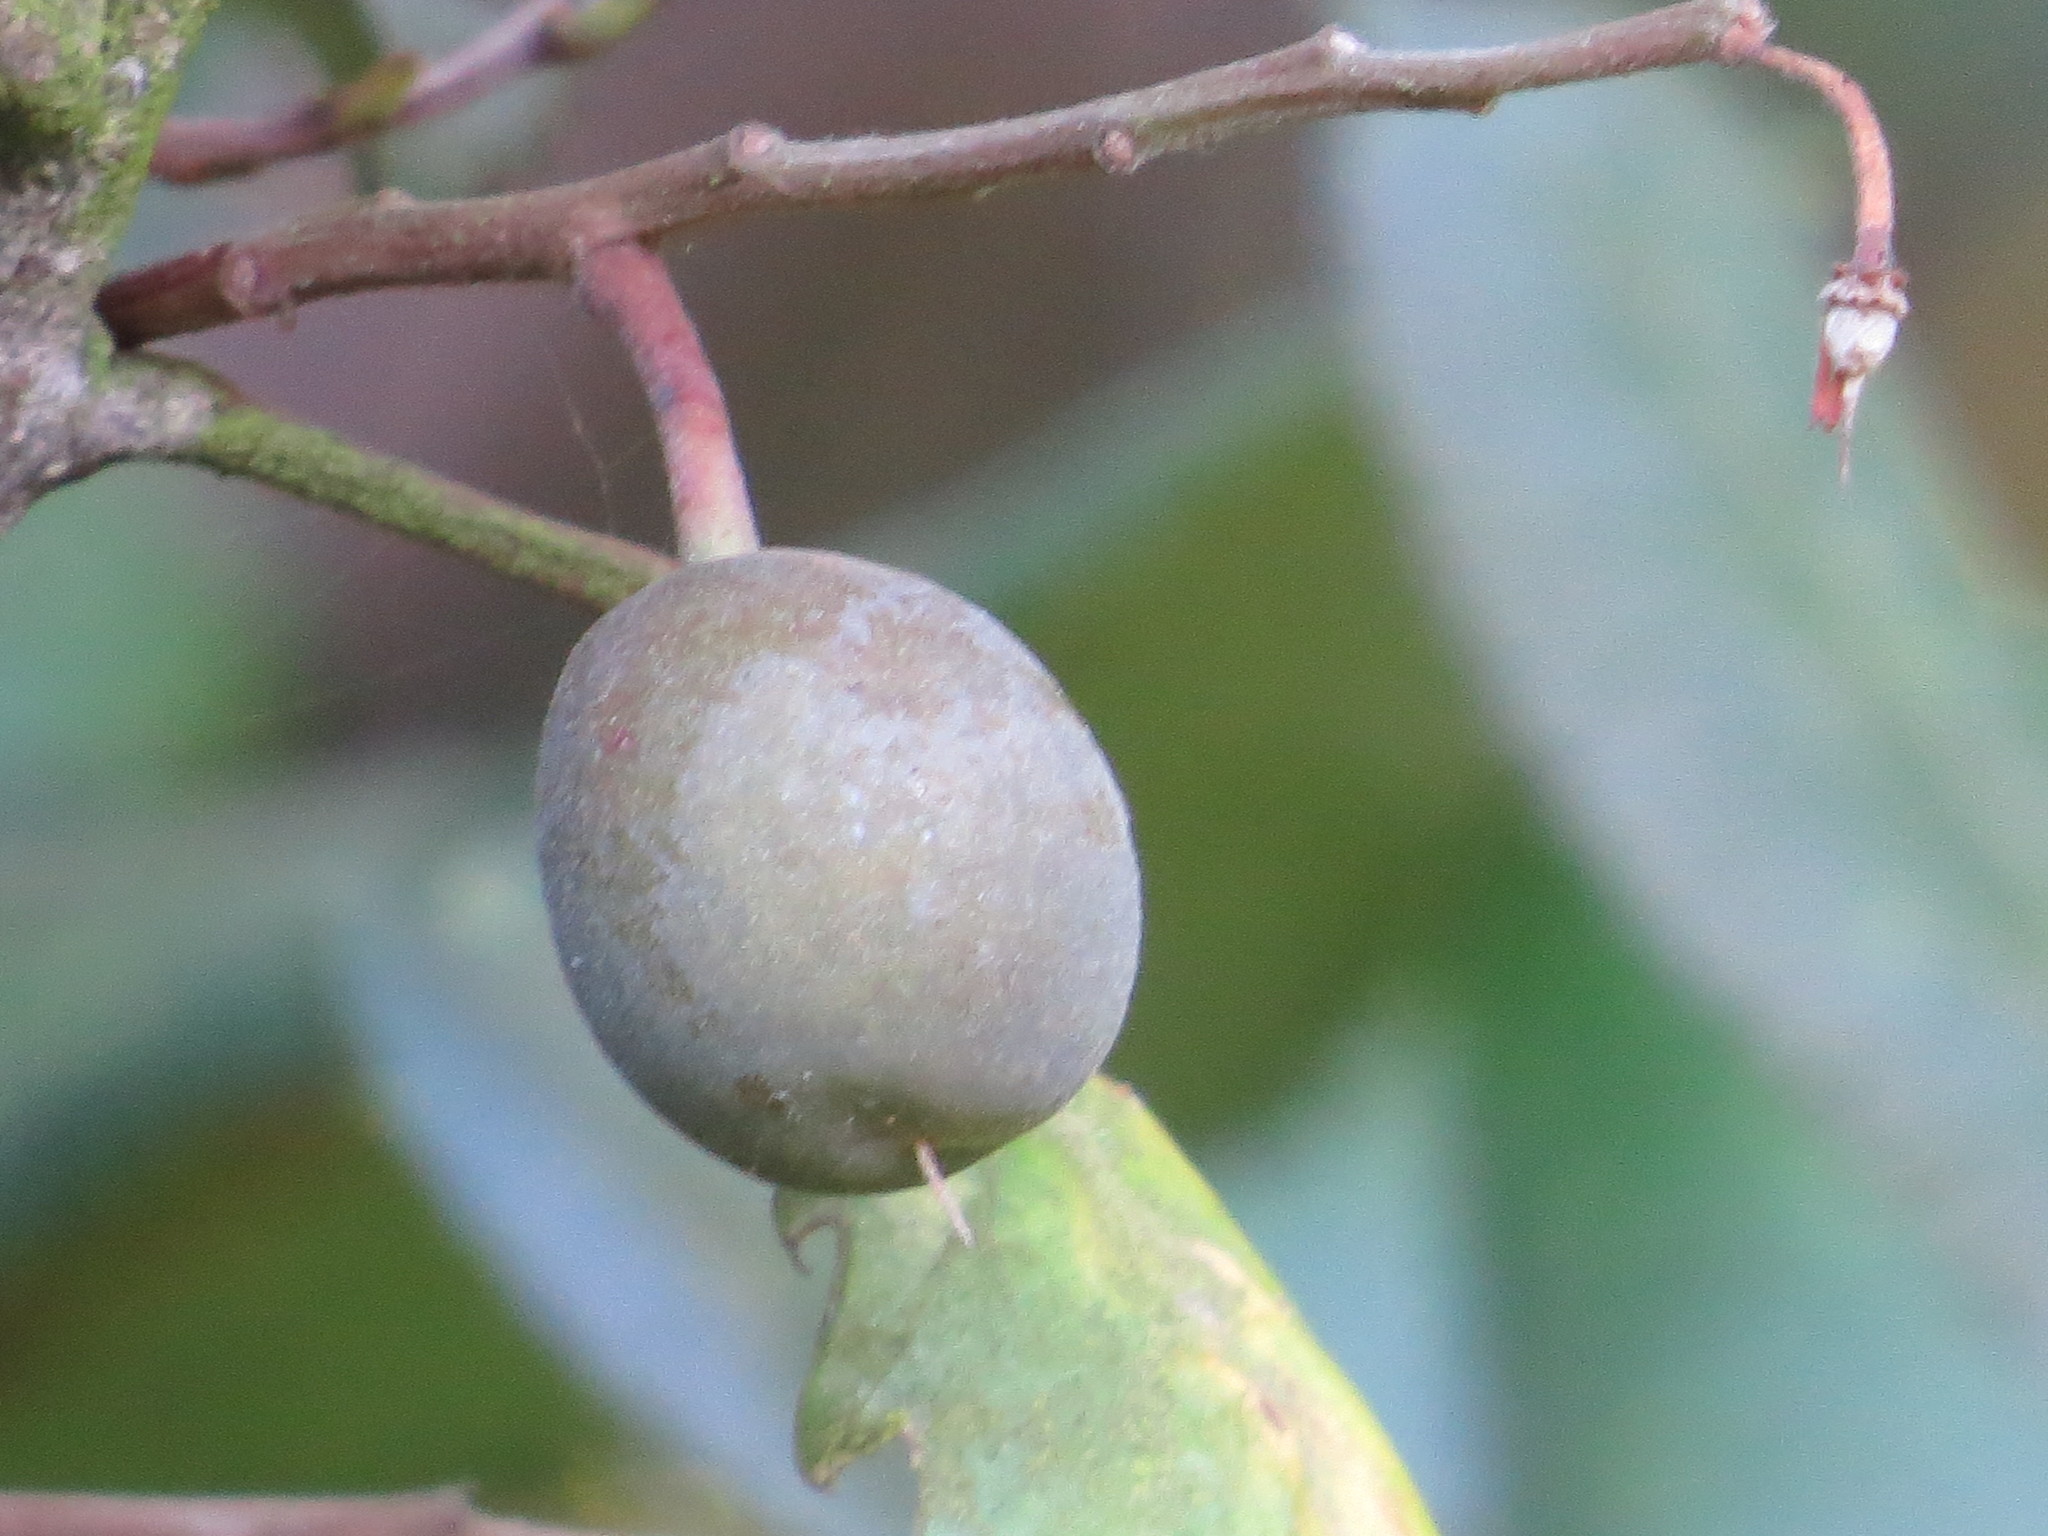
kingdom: Plantae
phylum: Tracheophyta
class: Magnoliopsida
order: Oxalidales
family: Elaeocarpaceae
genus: Elaeocarpus
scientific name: Elaeocarpus hookerianus
